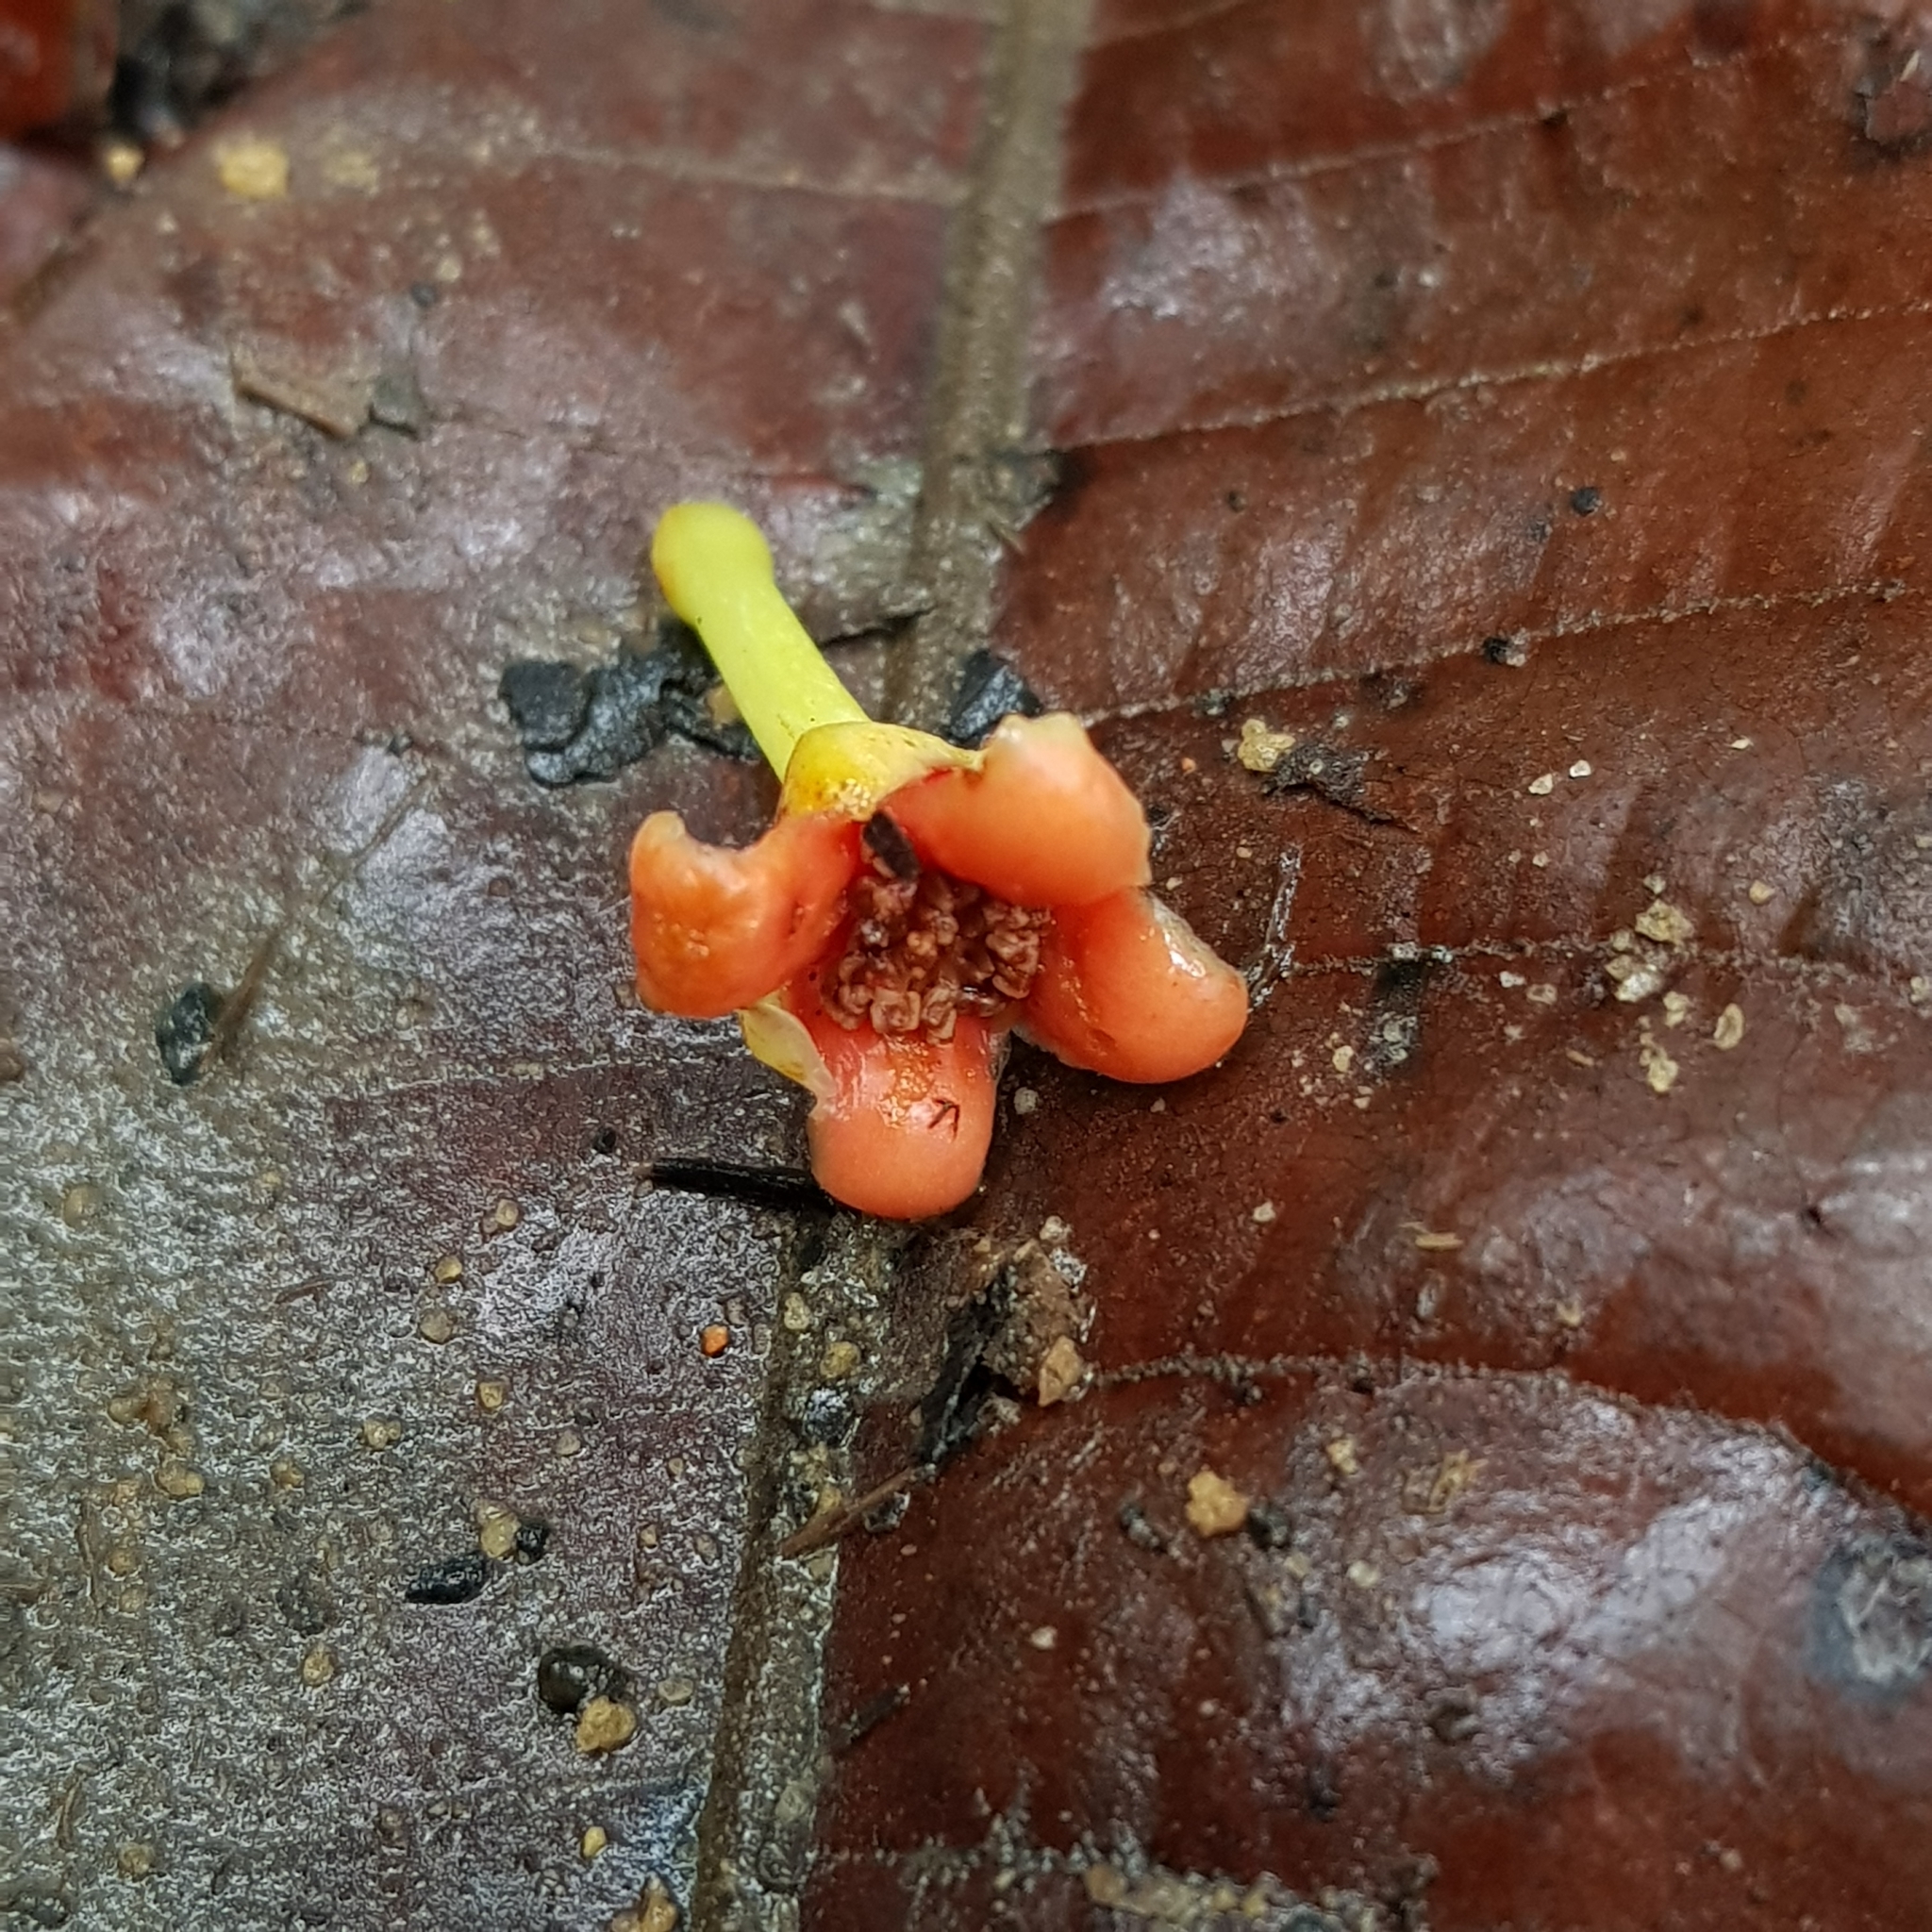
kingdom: Plantae
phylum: Tracheophyta
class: Magnoliopsida
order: Malpighiales
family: Clusiaceae
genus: Garcinia
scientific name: Garcinia griffithii
